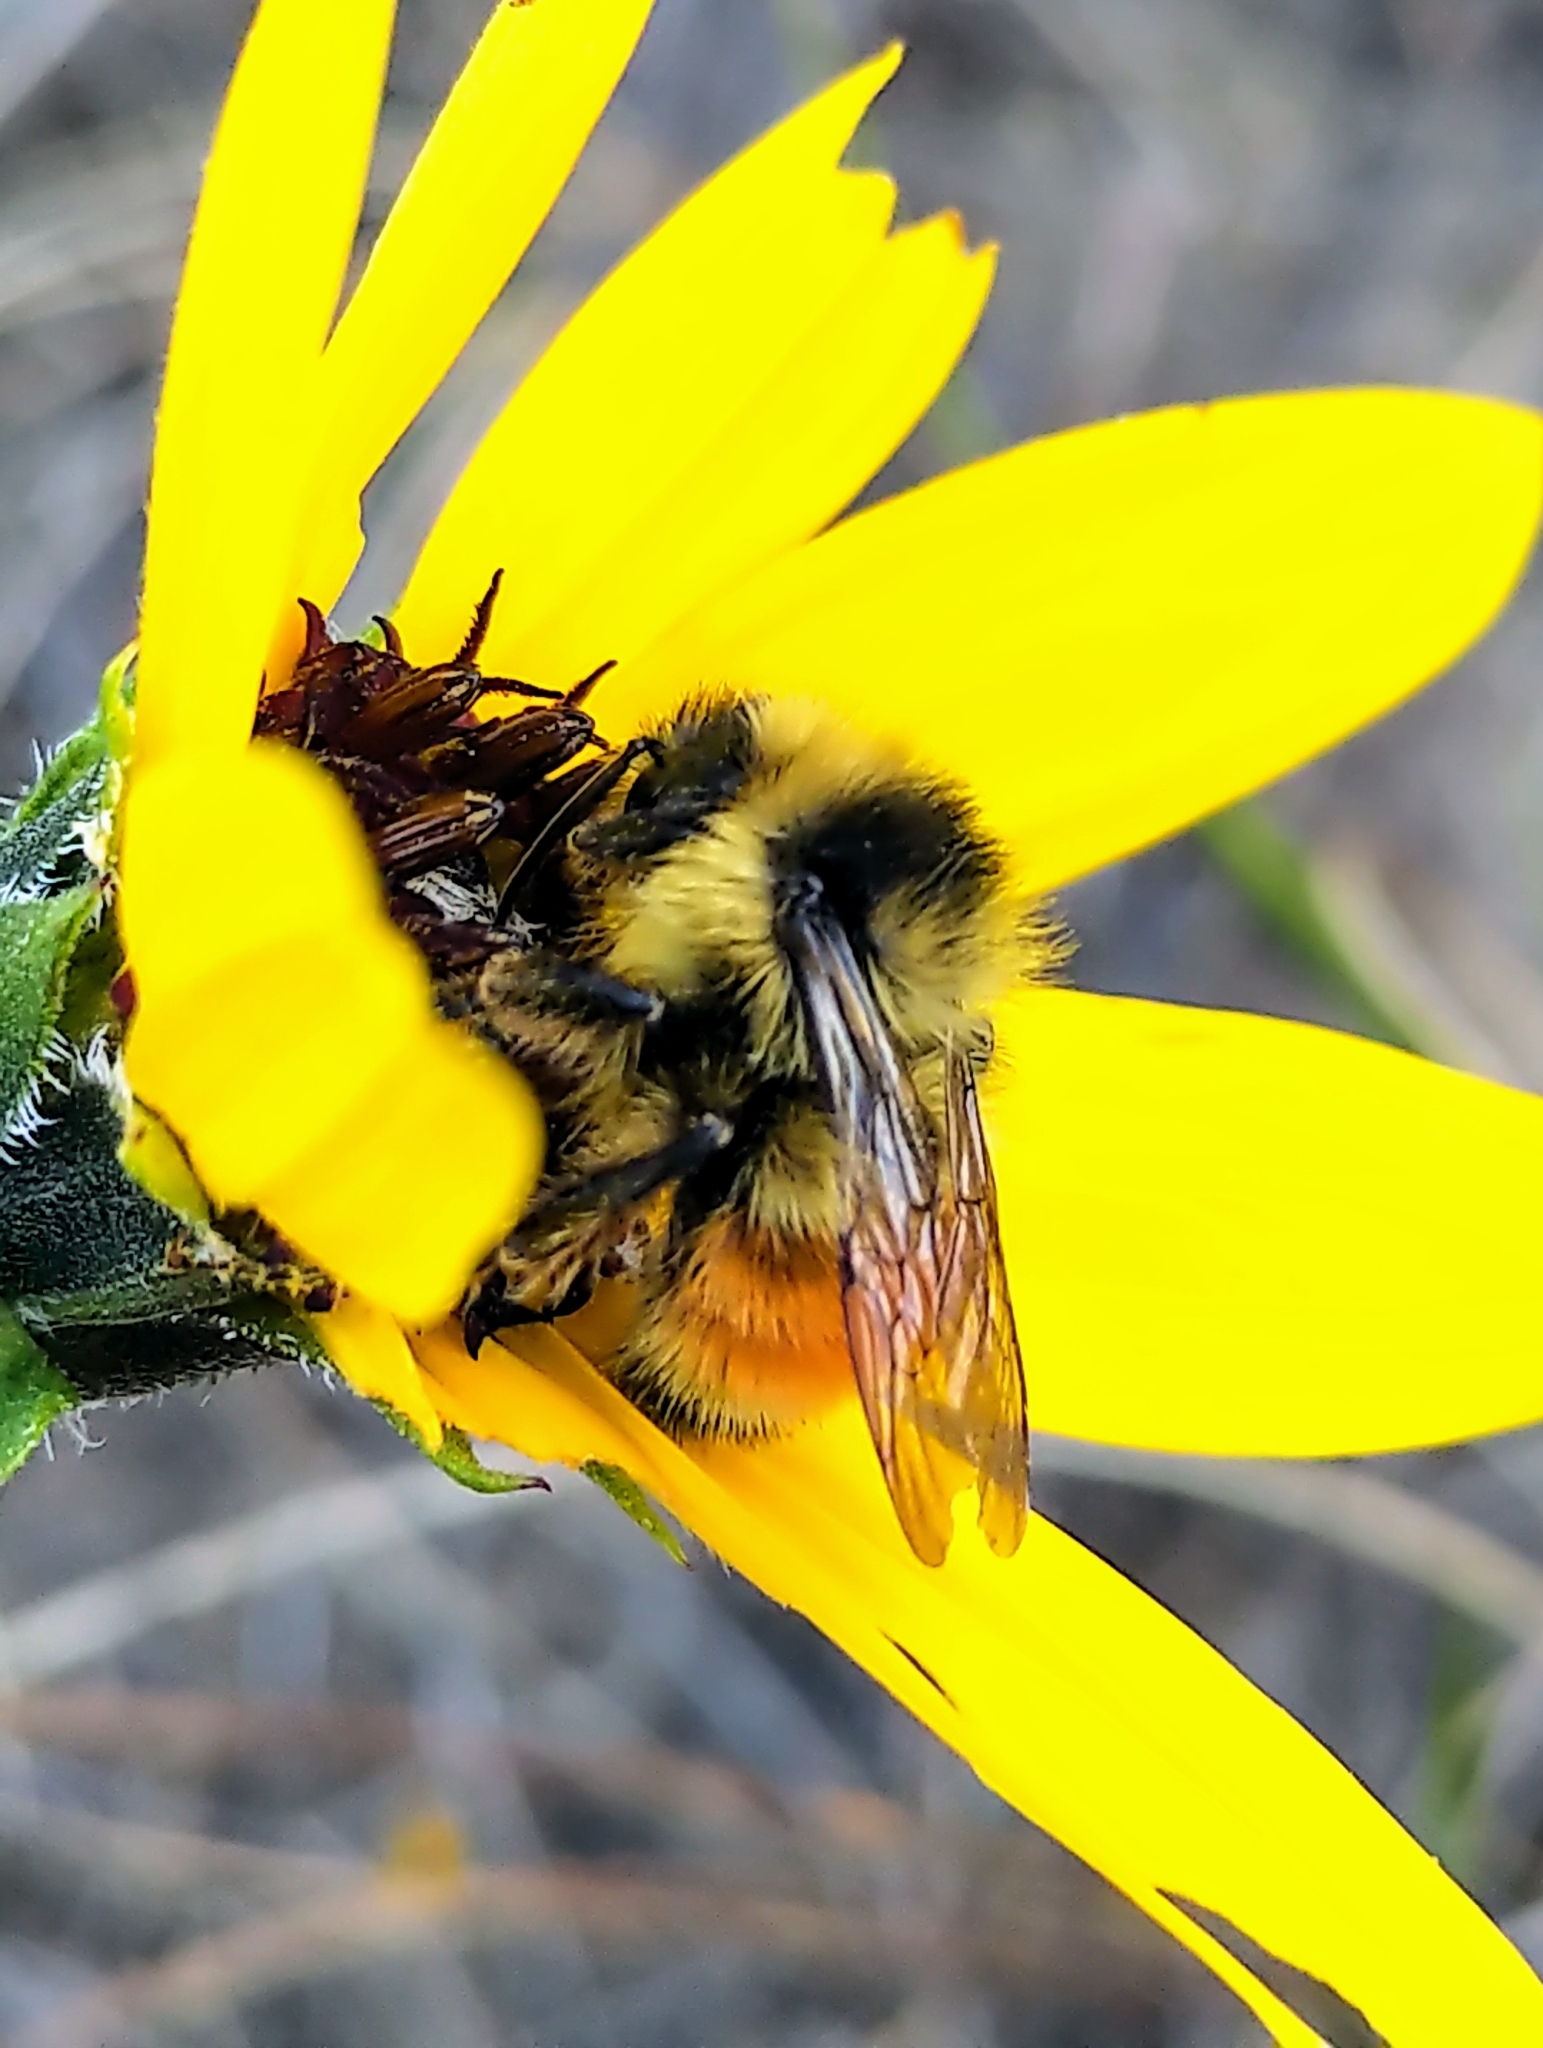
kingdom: Animalia
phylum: Arthropoda
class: Insecta
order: Hymenoptera
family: Apidae
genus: Bombus
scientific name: Bombus ternarius
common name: Tri-colored bumble bee
